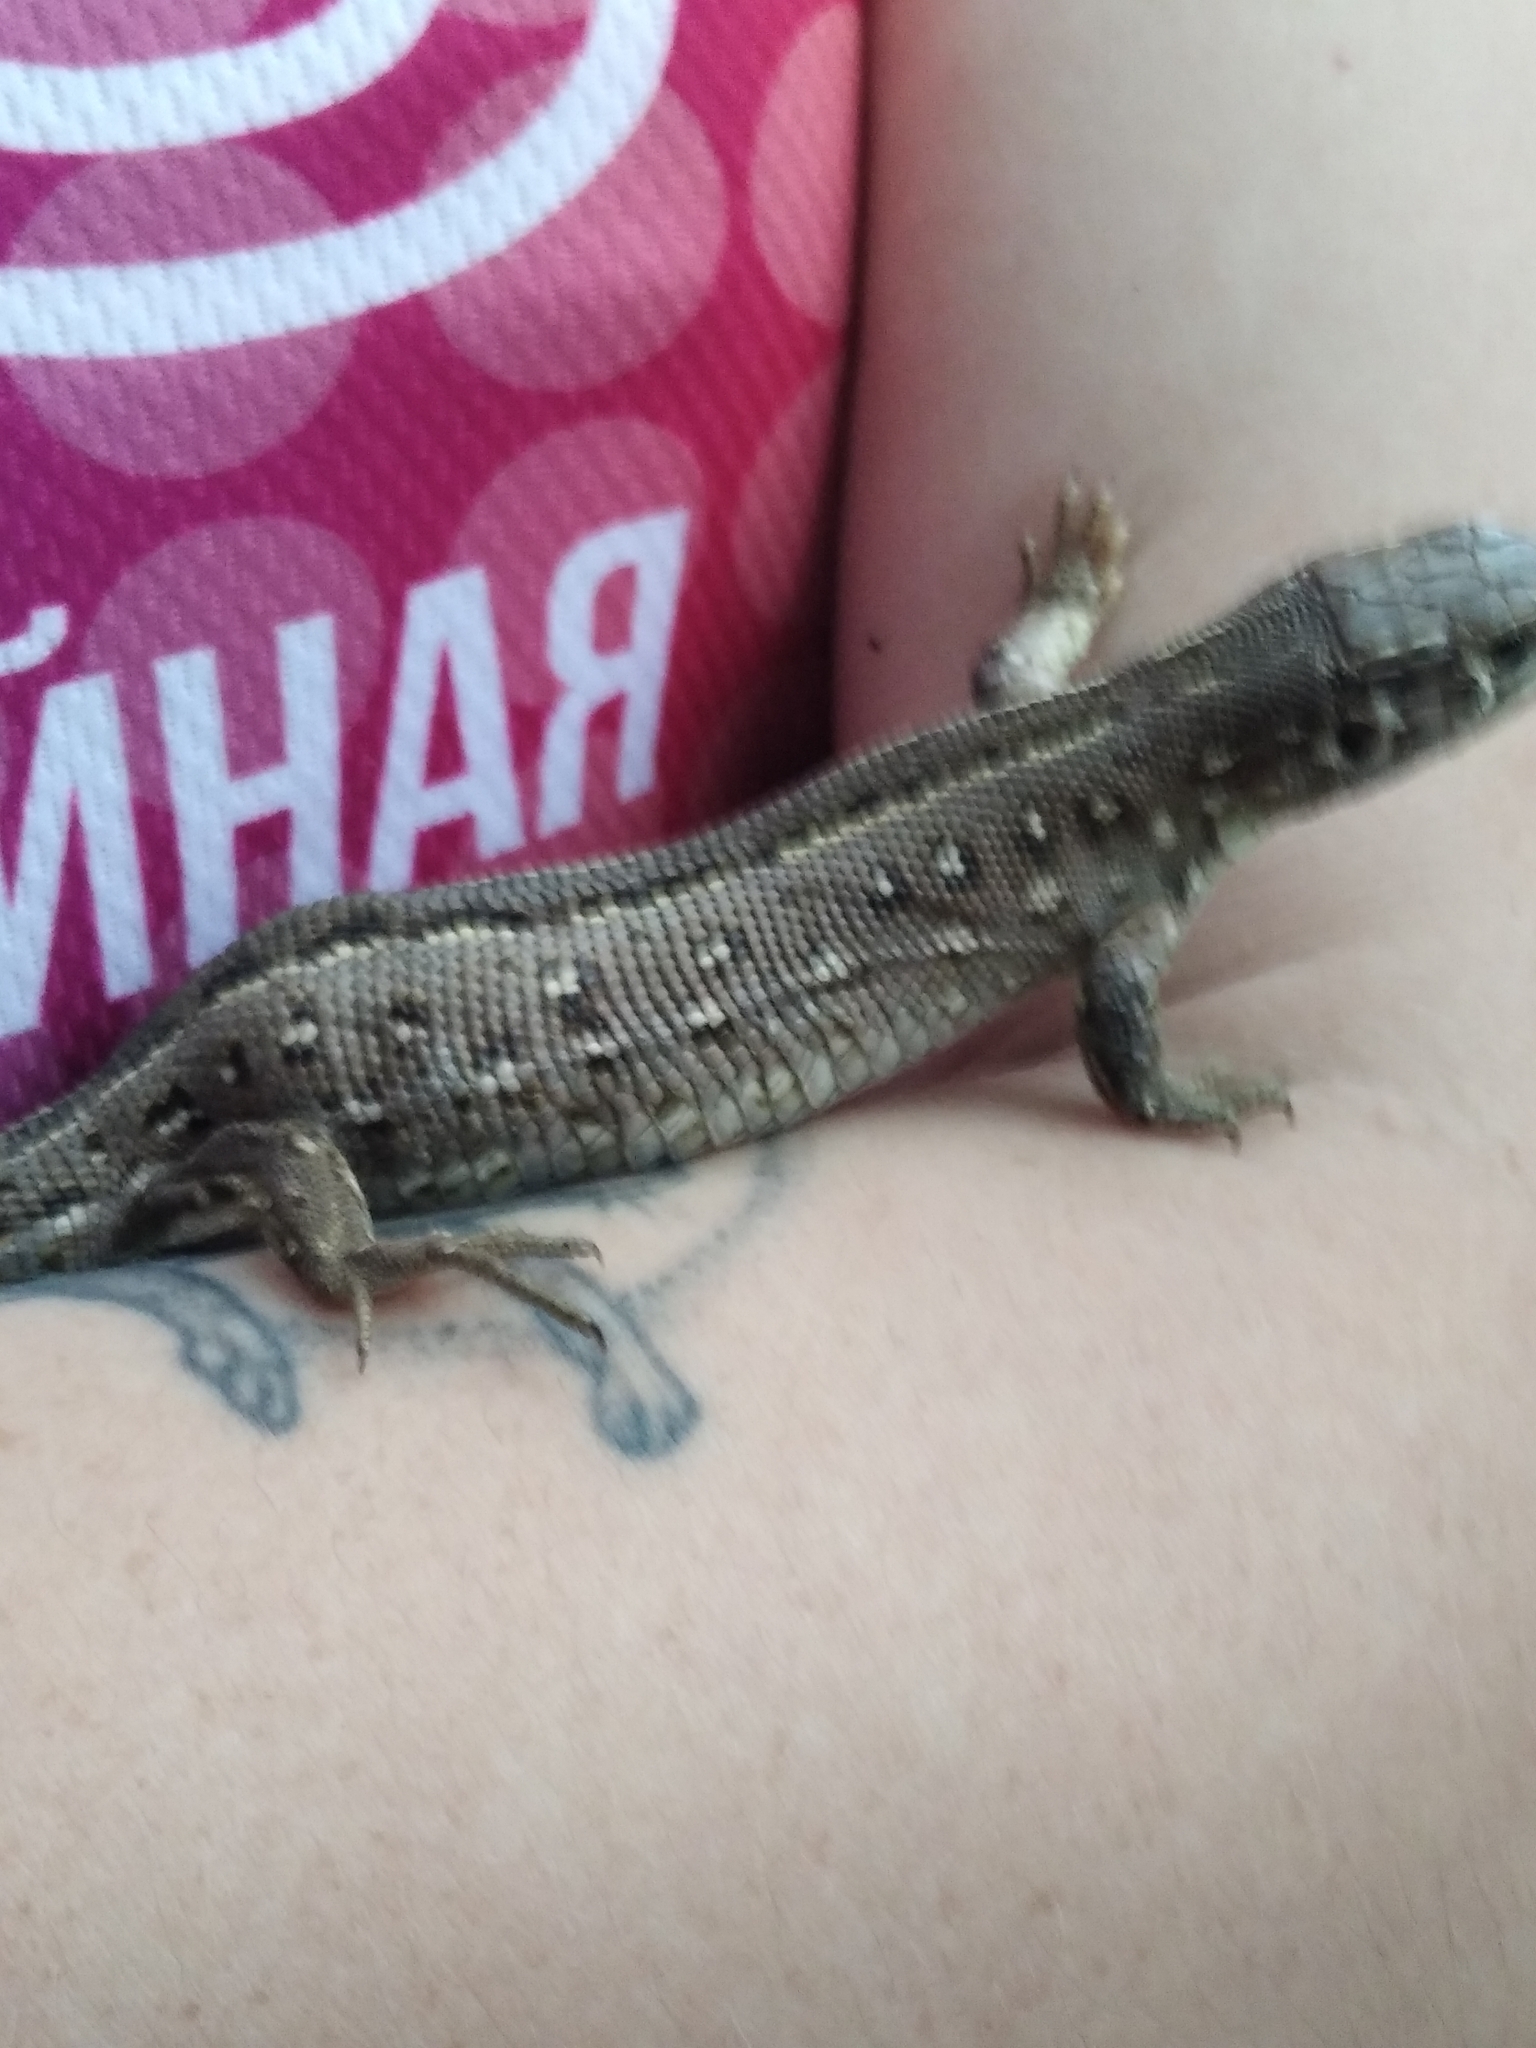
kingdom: Animalia
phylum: Chordata
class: Squamata
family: Lacertidae
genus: Lacerta
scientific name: Lacerta agilis
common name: Sand lizard
